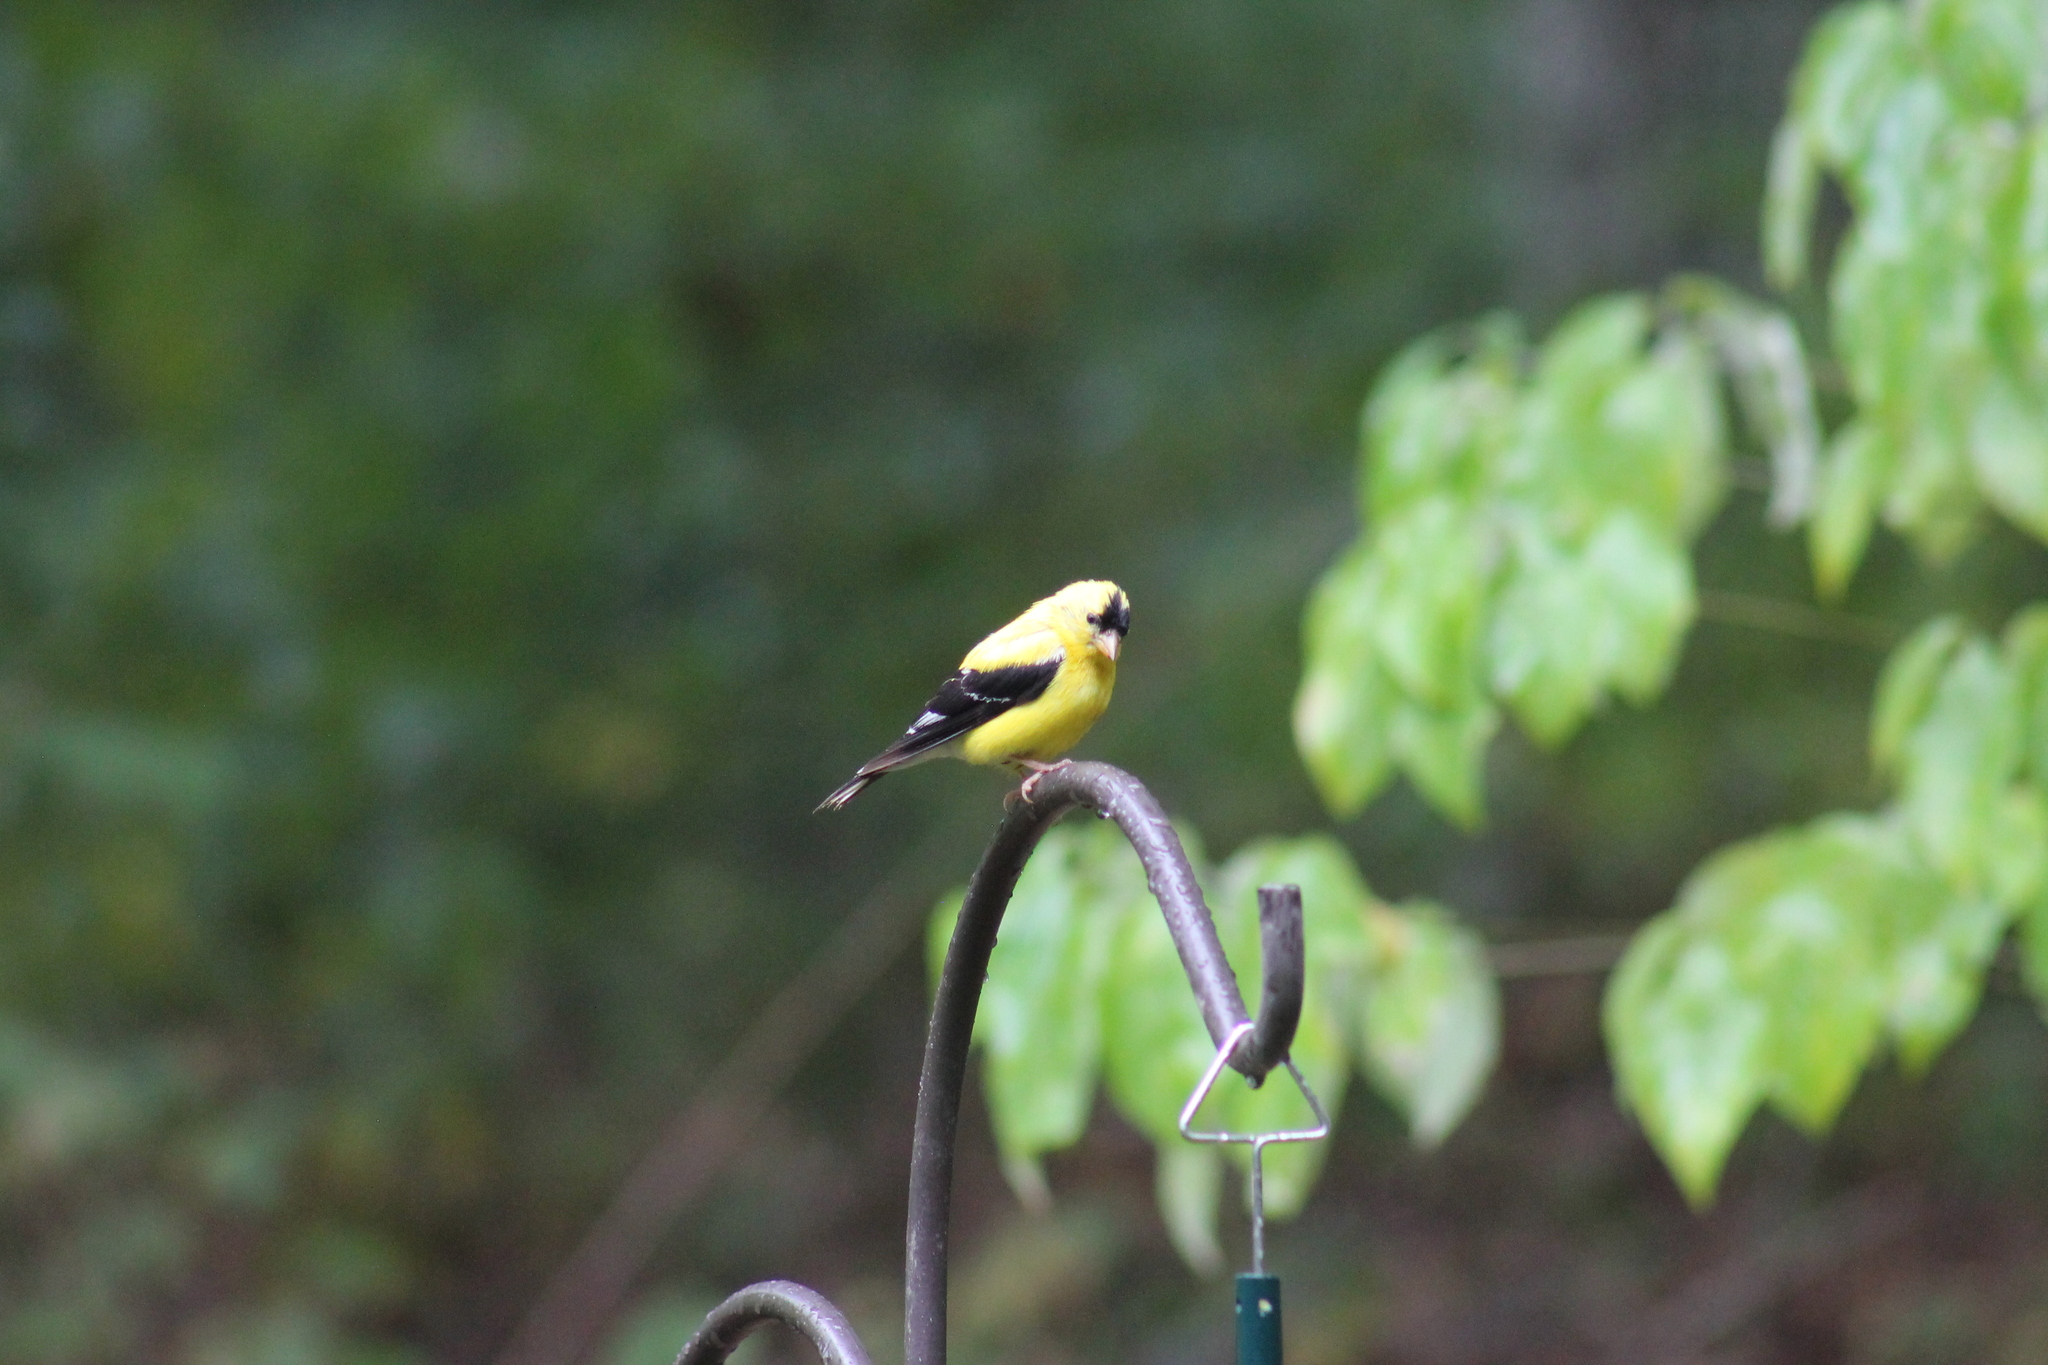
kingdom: Animalia
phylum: Chordata
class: Aves
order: Passeriformes
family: Fringillidae
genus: Spinus
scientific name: Spinus tristis
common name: American goldfinch
